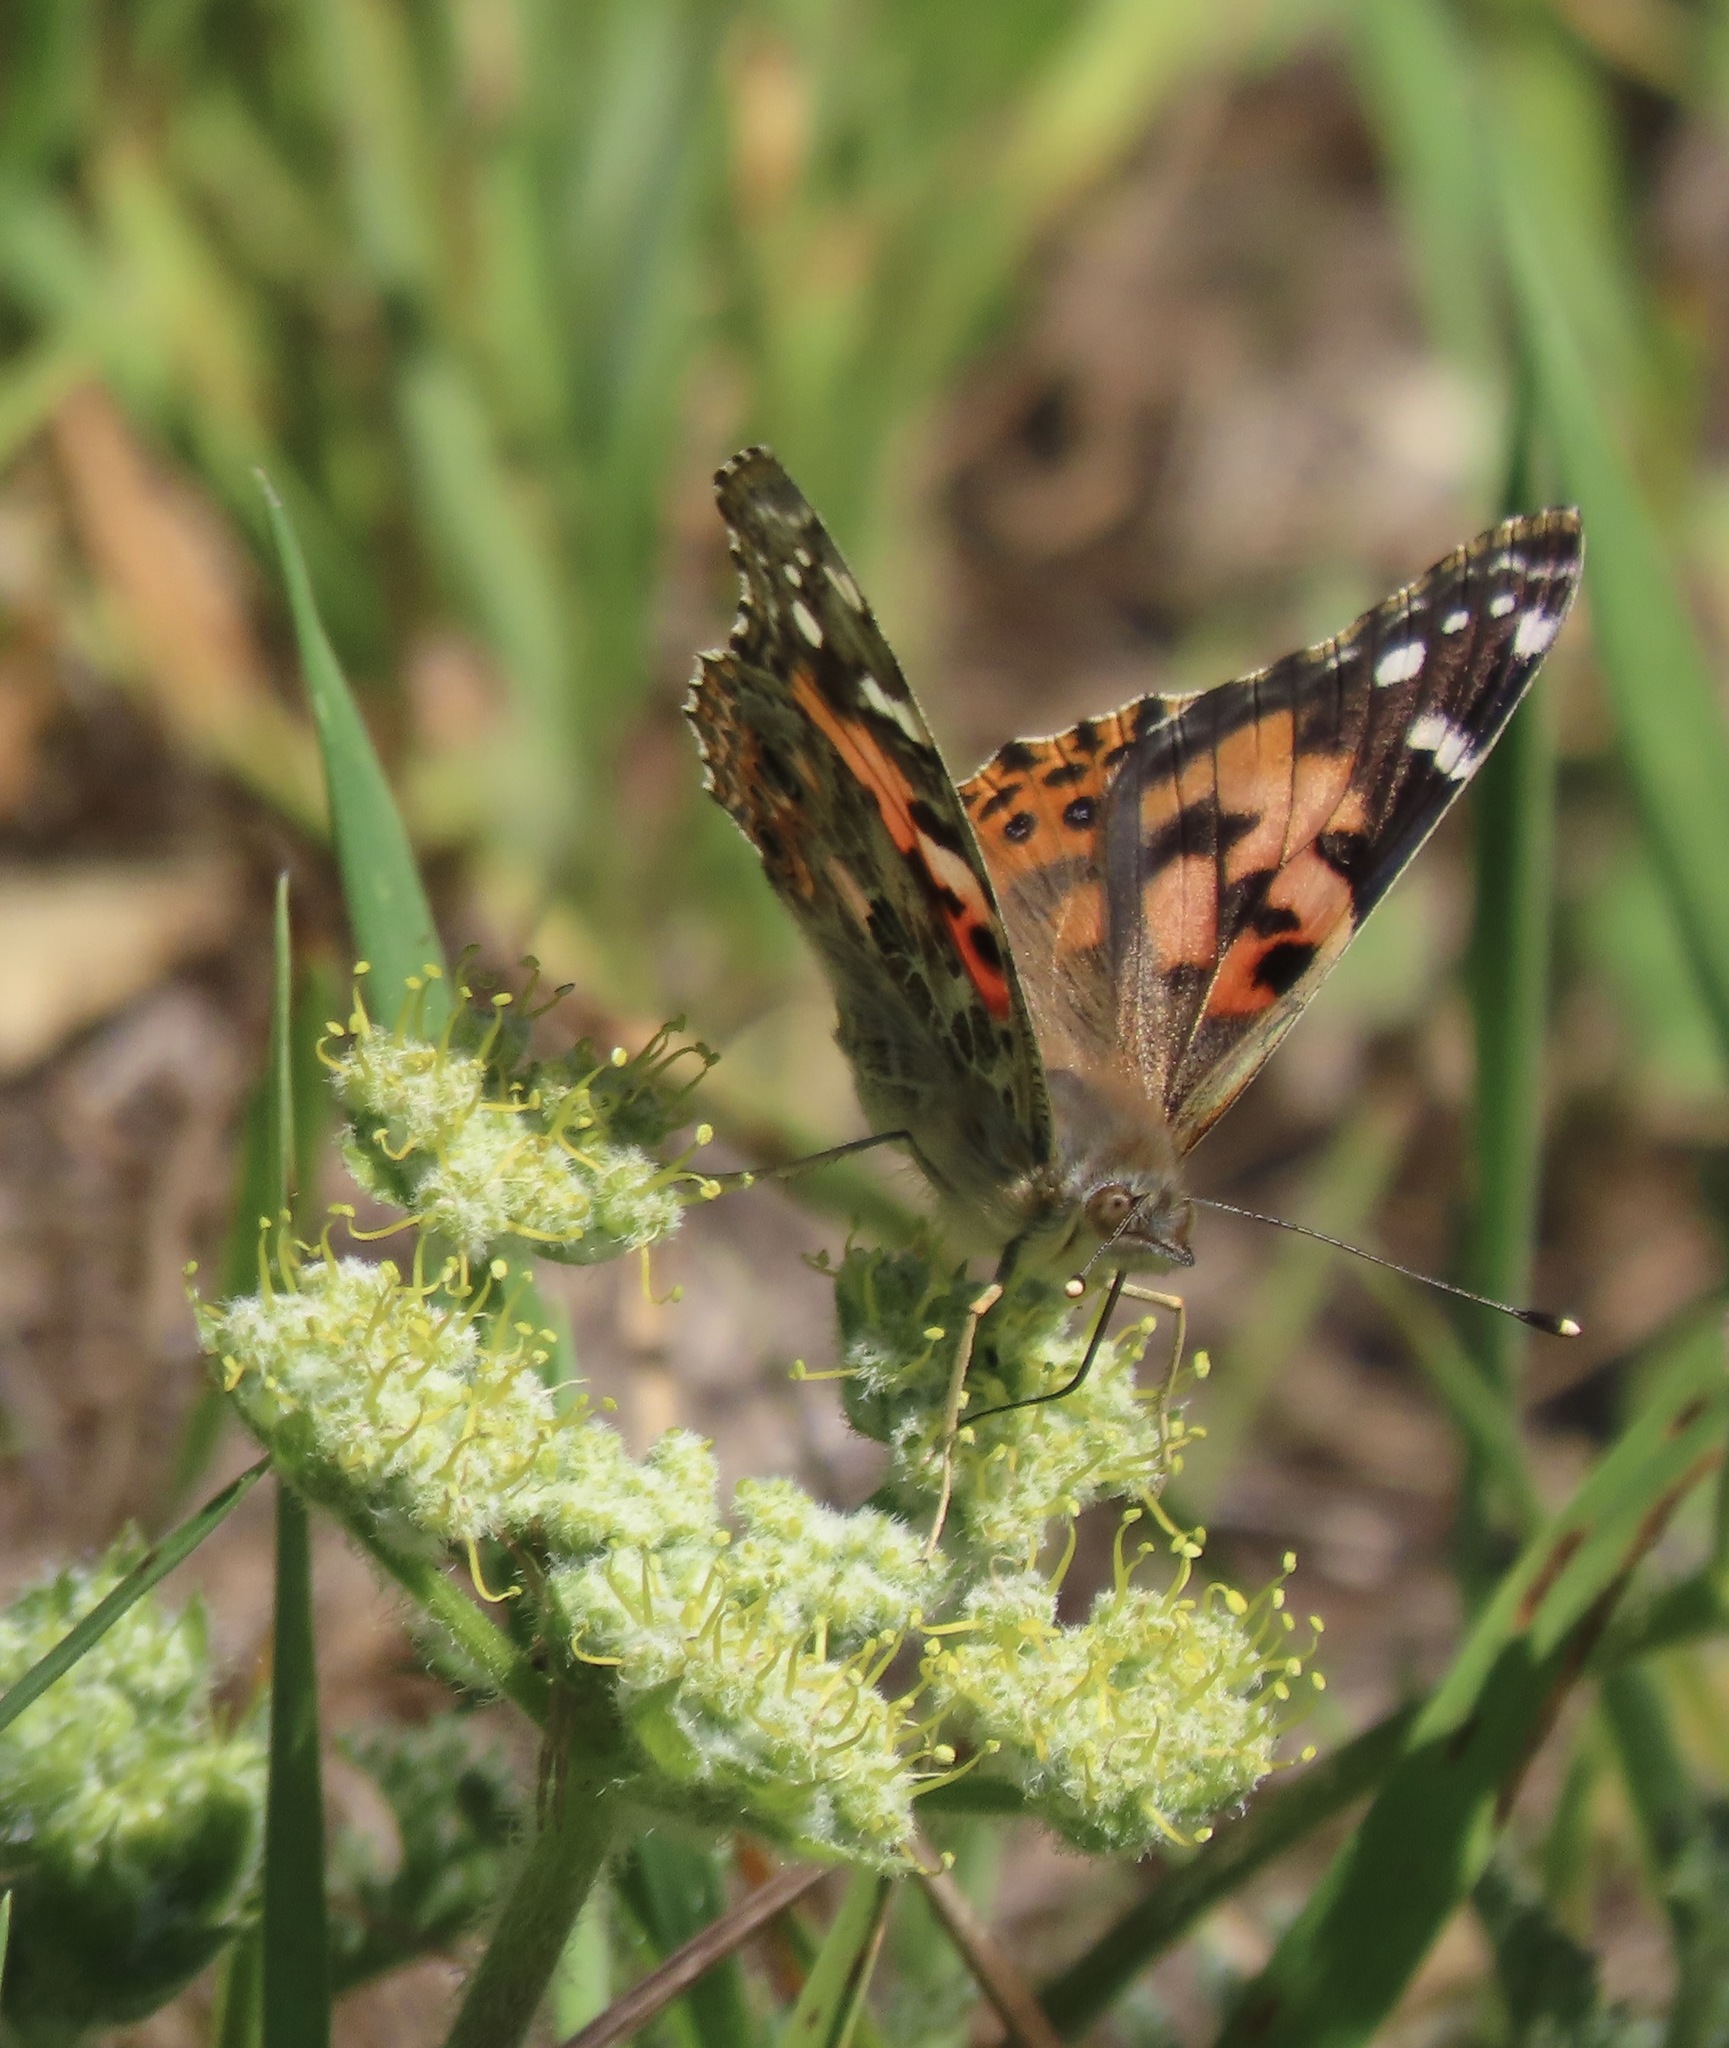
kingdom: Animalia
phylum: Arthropoda
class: Insecta
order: Lepidoptera
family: Nymphalidae
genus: Vanessa
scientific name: Vanessa cardui
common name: Painted lady
